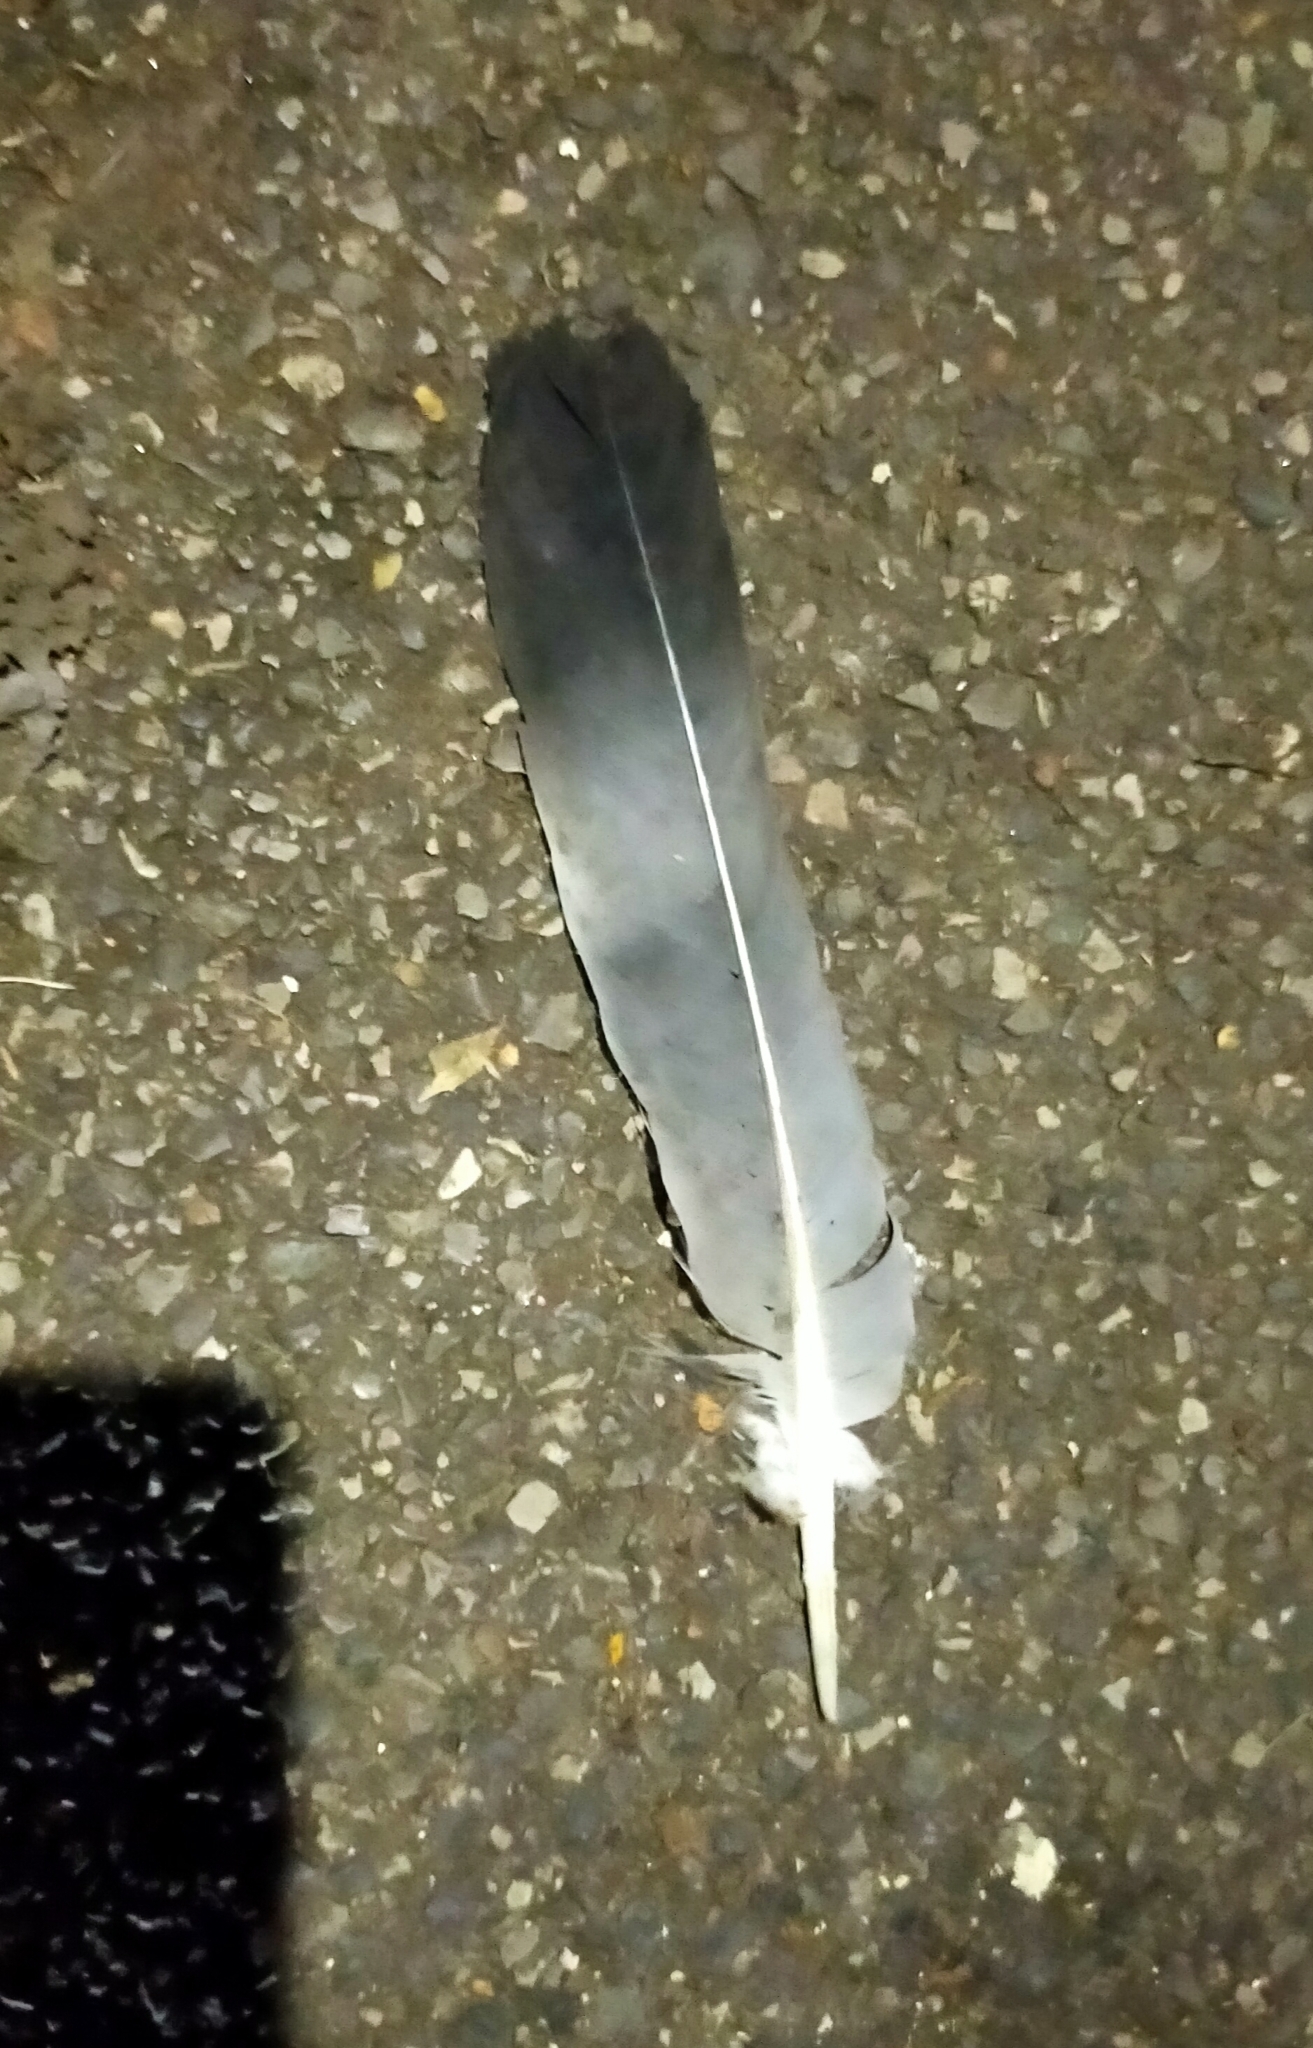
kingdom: Animalia
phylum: Chordata
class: Aves
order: Columbiformes
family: Columbidae
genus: Columba
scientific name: Columba palumbus
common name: Common wood pigeon
